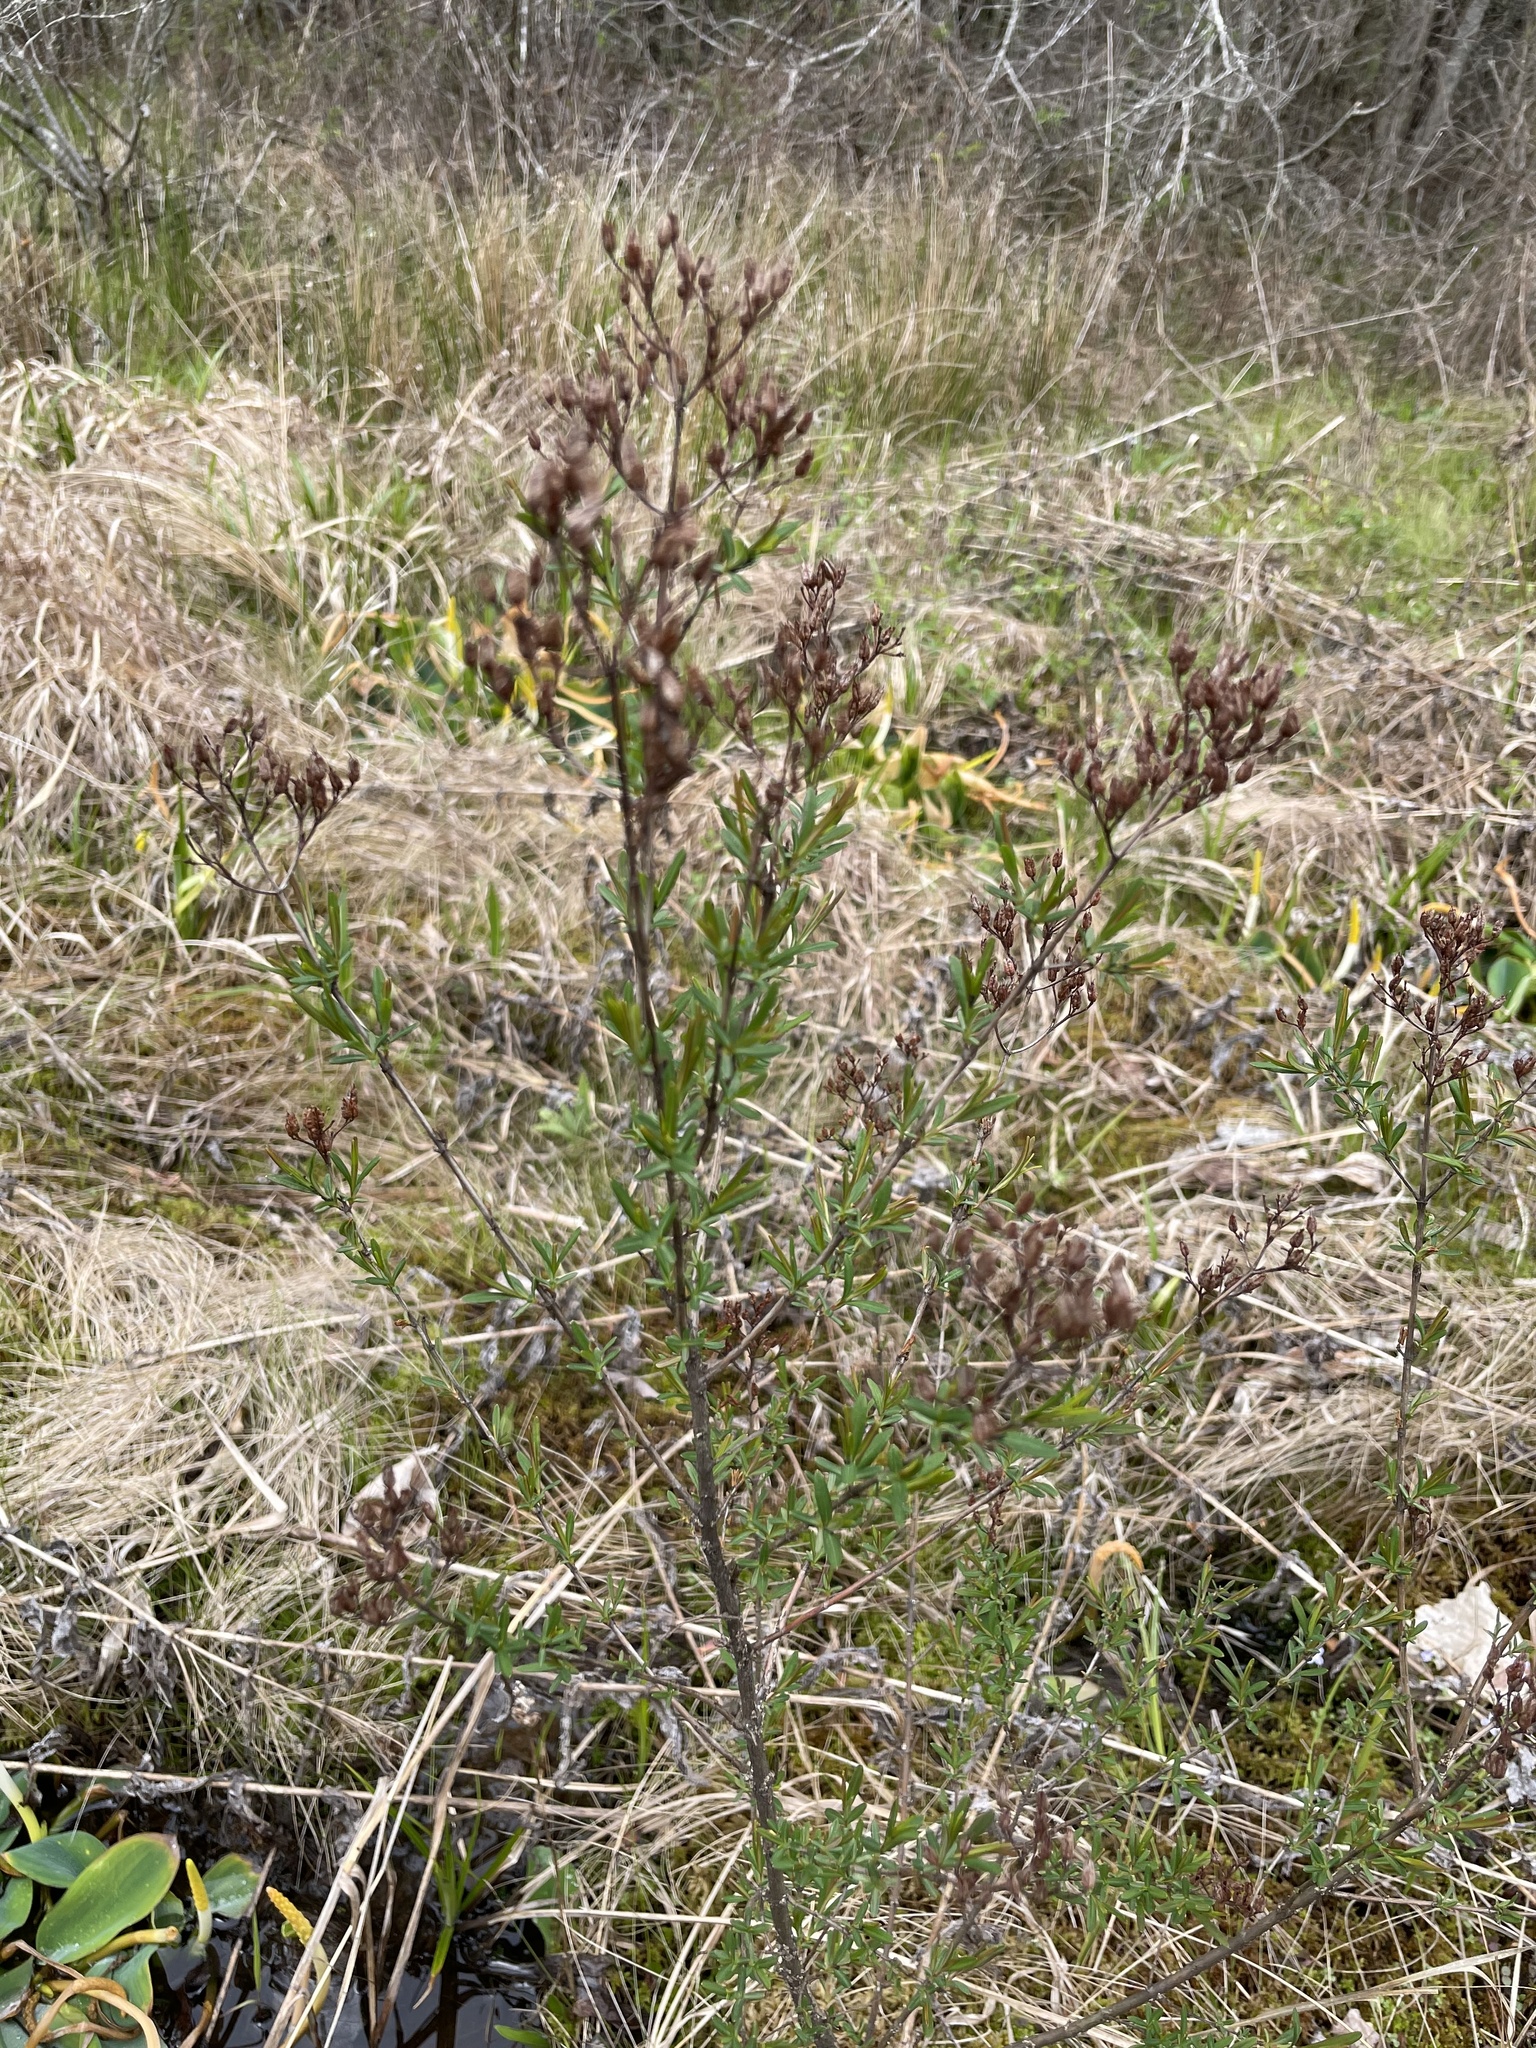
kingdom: Plantae
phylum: Tracheophyta
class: Magnoliopsida
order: Malpighiales
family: Hypericaceae
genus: Hypericum
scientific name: Hypericum densiflorum
